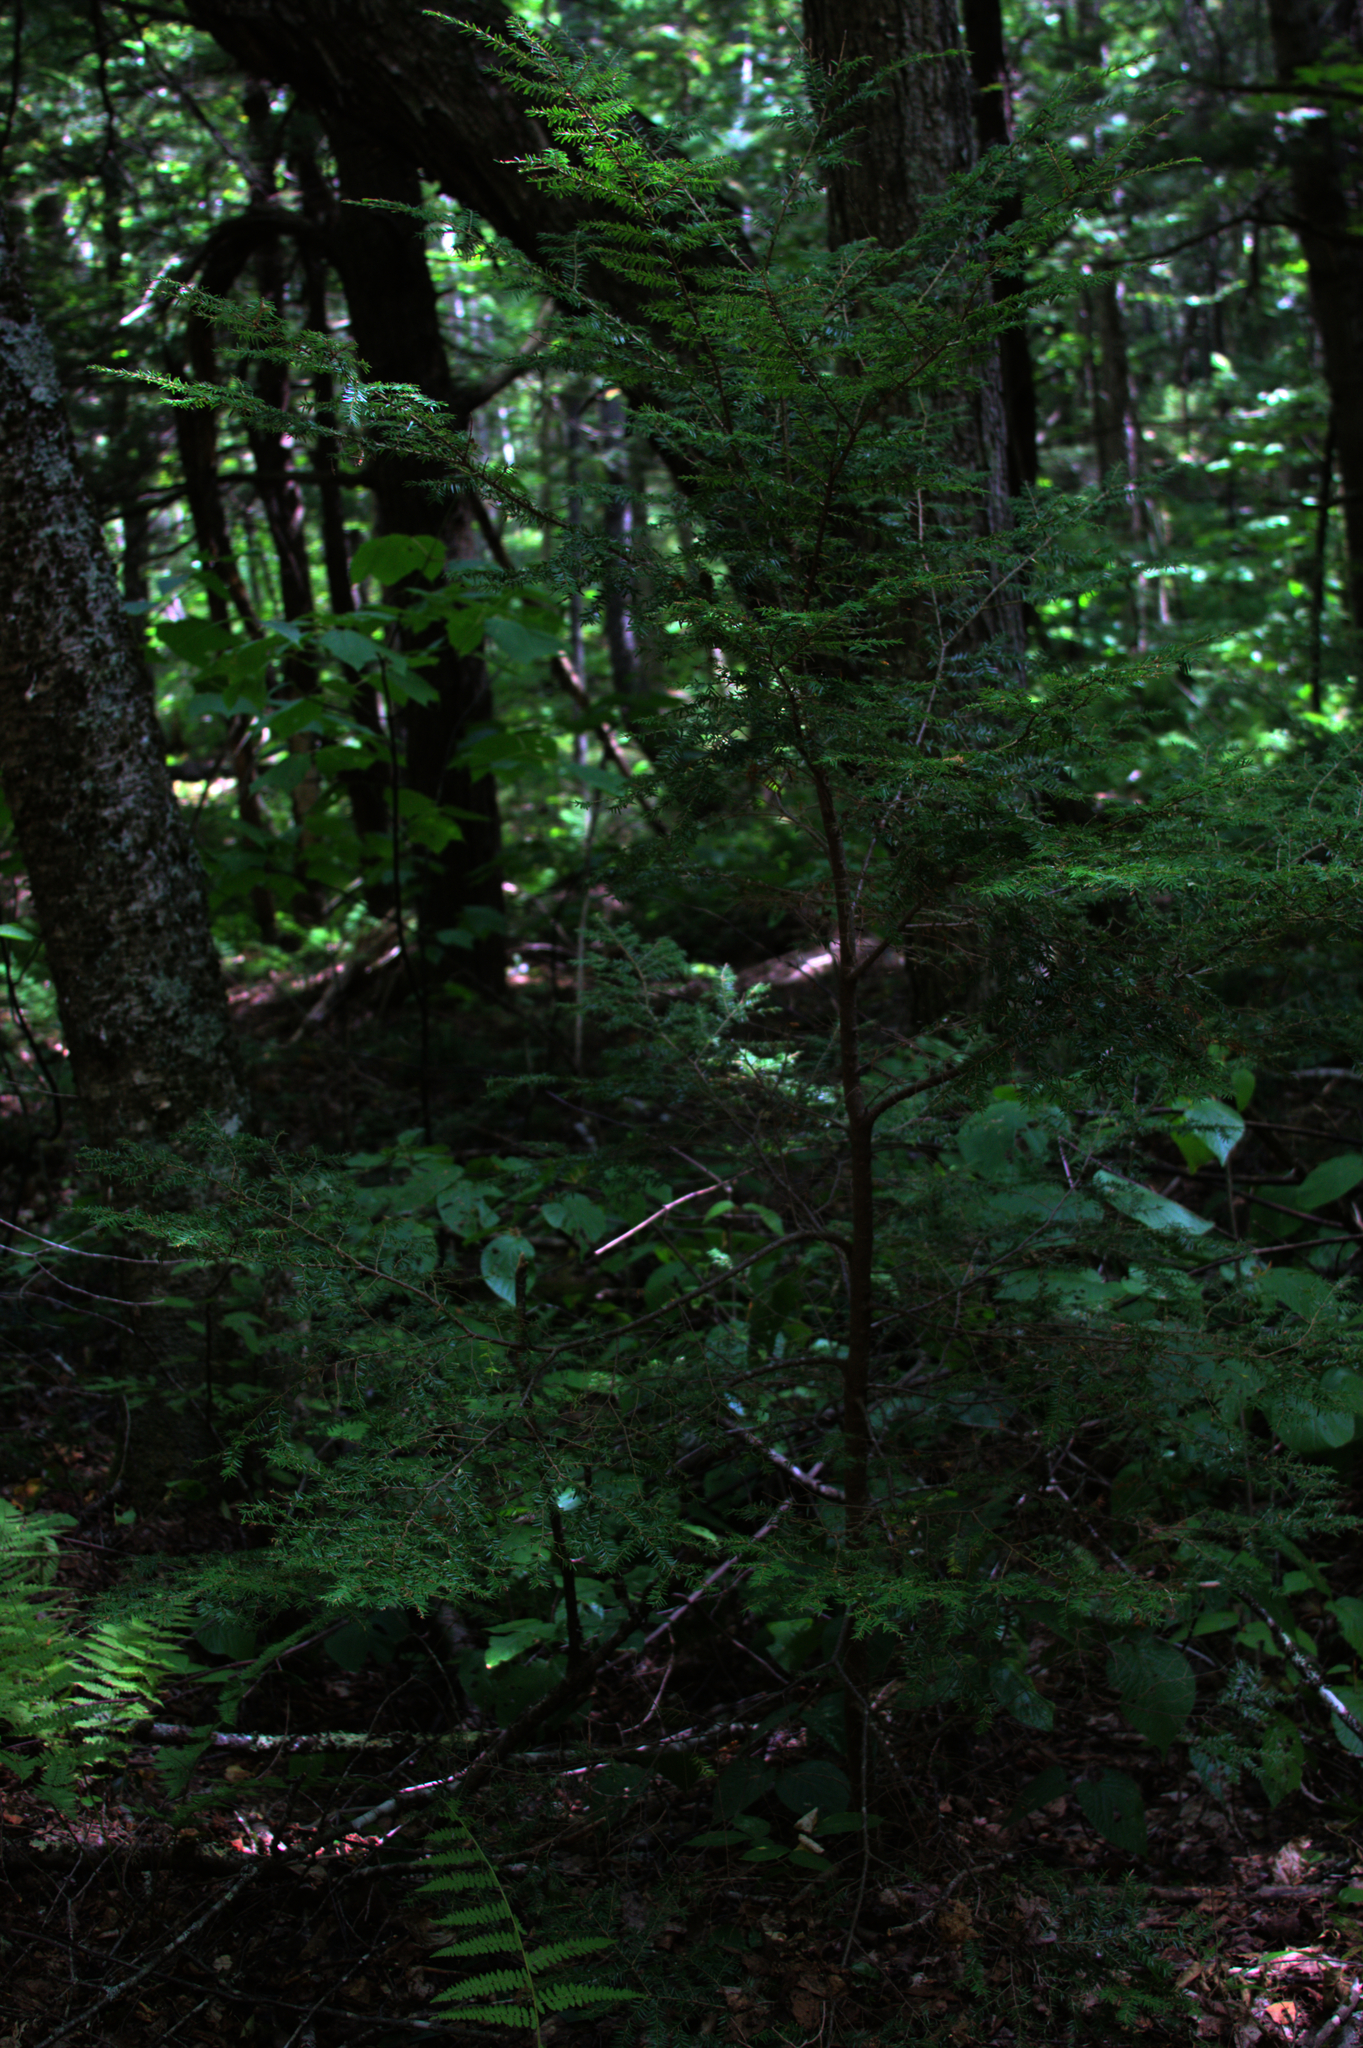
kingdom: Plantae
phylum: Tracheophyta
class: Pinopsida
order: Pinales
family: Pinaceae
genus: Tsuga
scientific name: Tsuga canadensis
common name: Eastern hemlock
